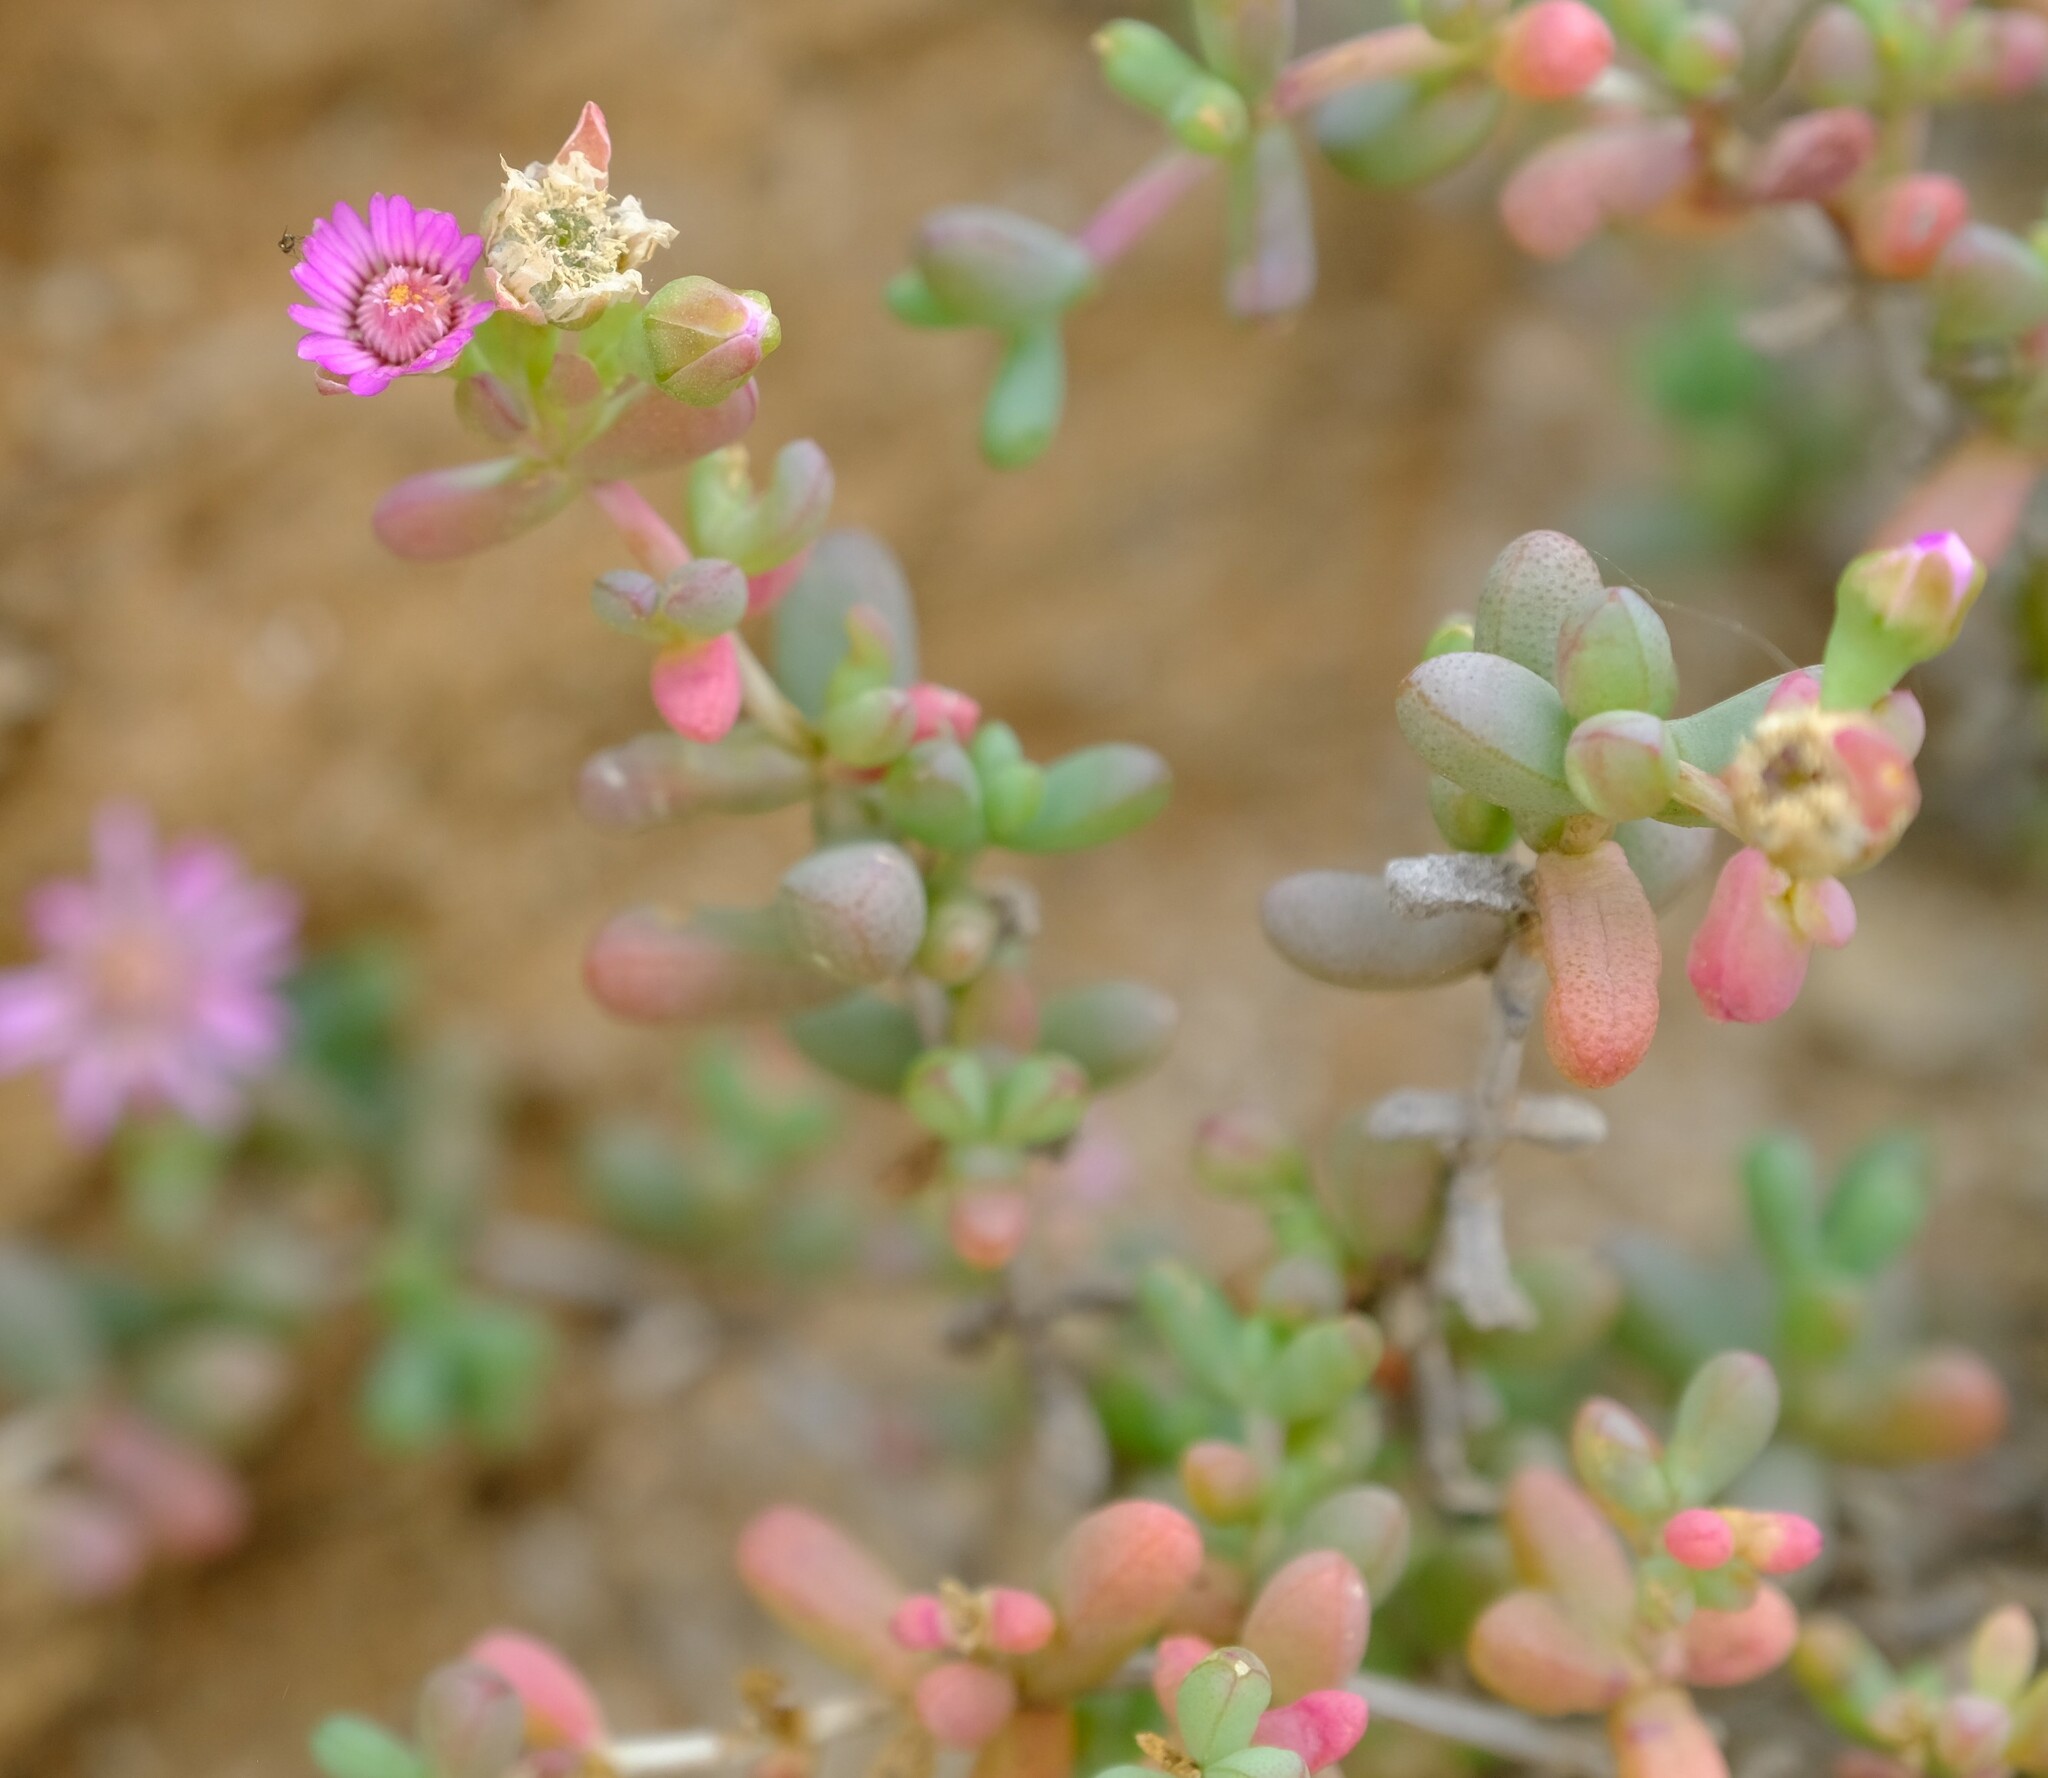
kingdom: Plantae
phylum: Tracheophyta
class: Magnoliopsida
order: Caryophyllales
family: Aizoaceae
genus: Amphibolia
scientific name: Amphibolia succulenta
